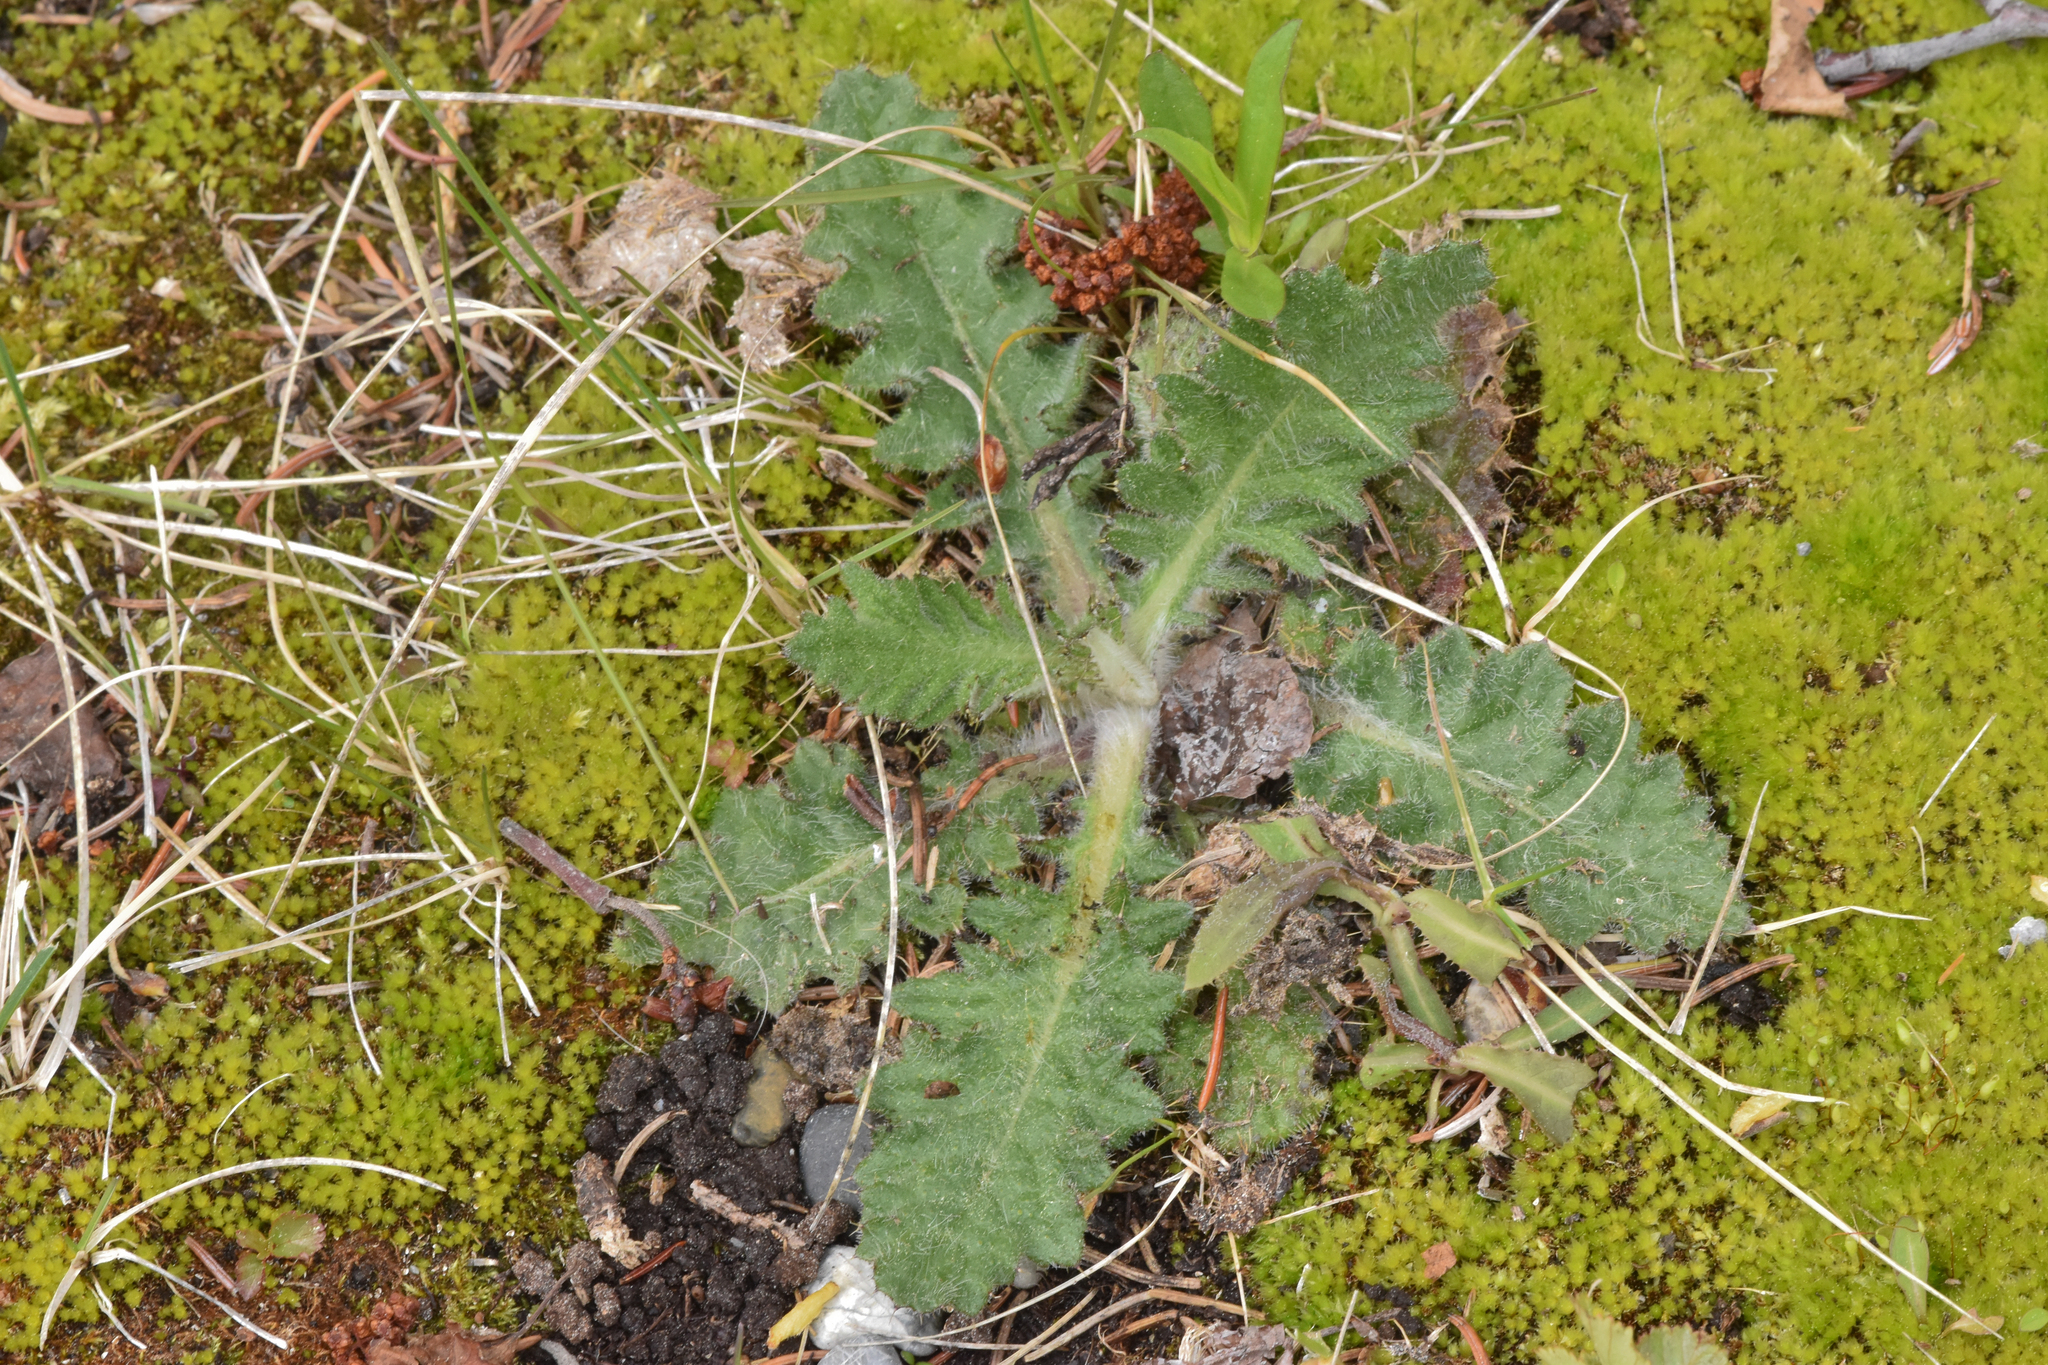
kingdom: Plantae
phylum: Tracheophyta
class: Magnoliopsida
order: Asterales
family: Asteraceae
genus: Cirsium
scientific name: Cirsium vulgare
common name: Bull thistle
